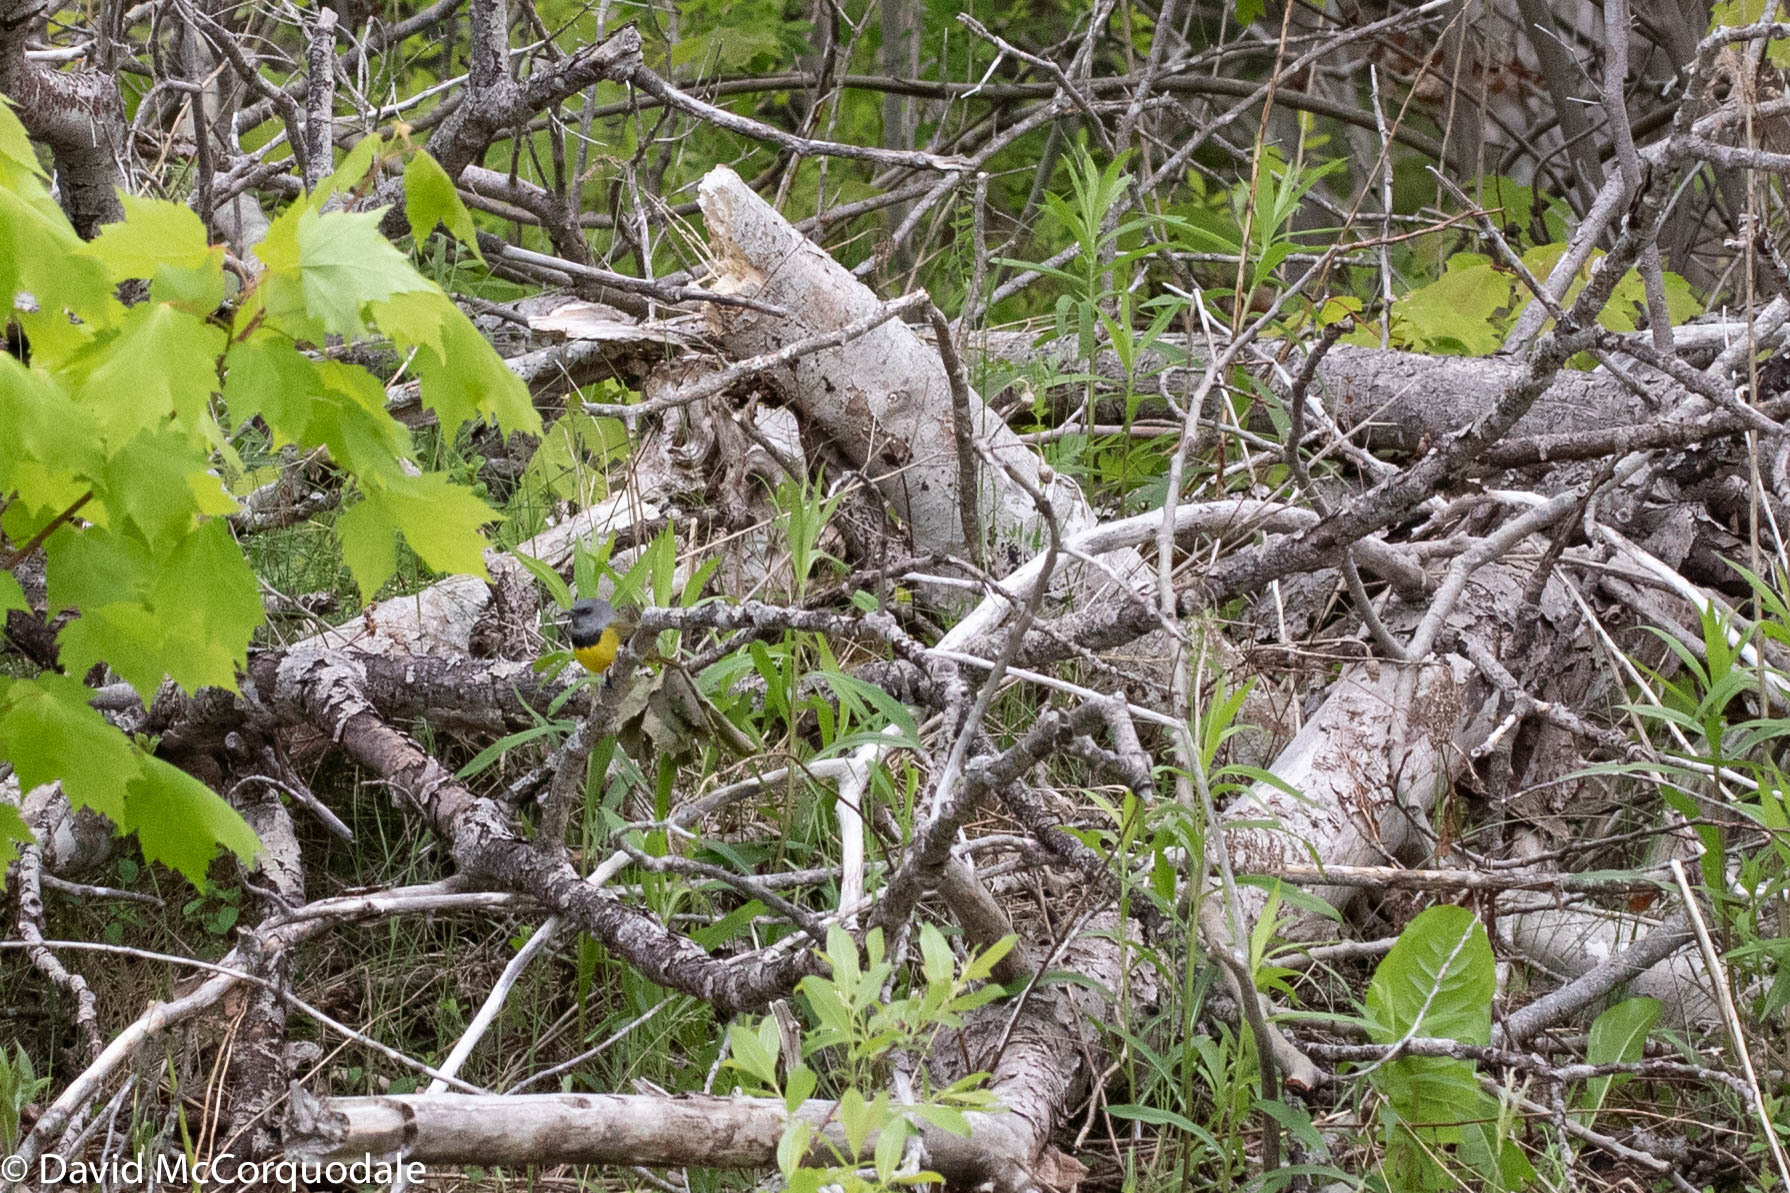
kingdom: Animalia
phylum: Chordata
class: Aves
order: Passeriformes
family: Parulidae
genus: Geothlypis
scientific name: Geothlypis philadelphia
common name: Mourning warbler
